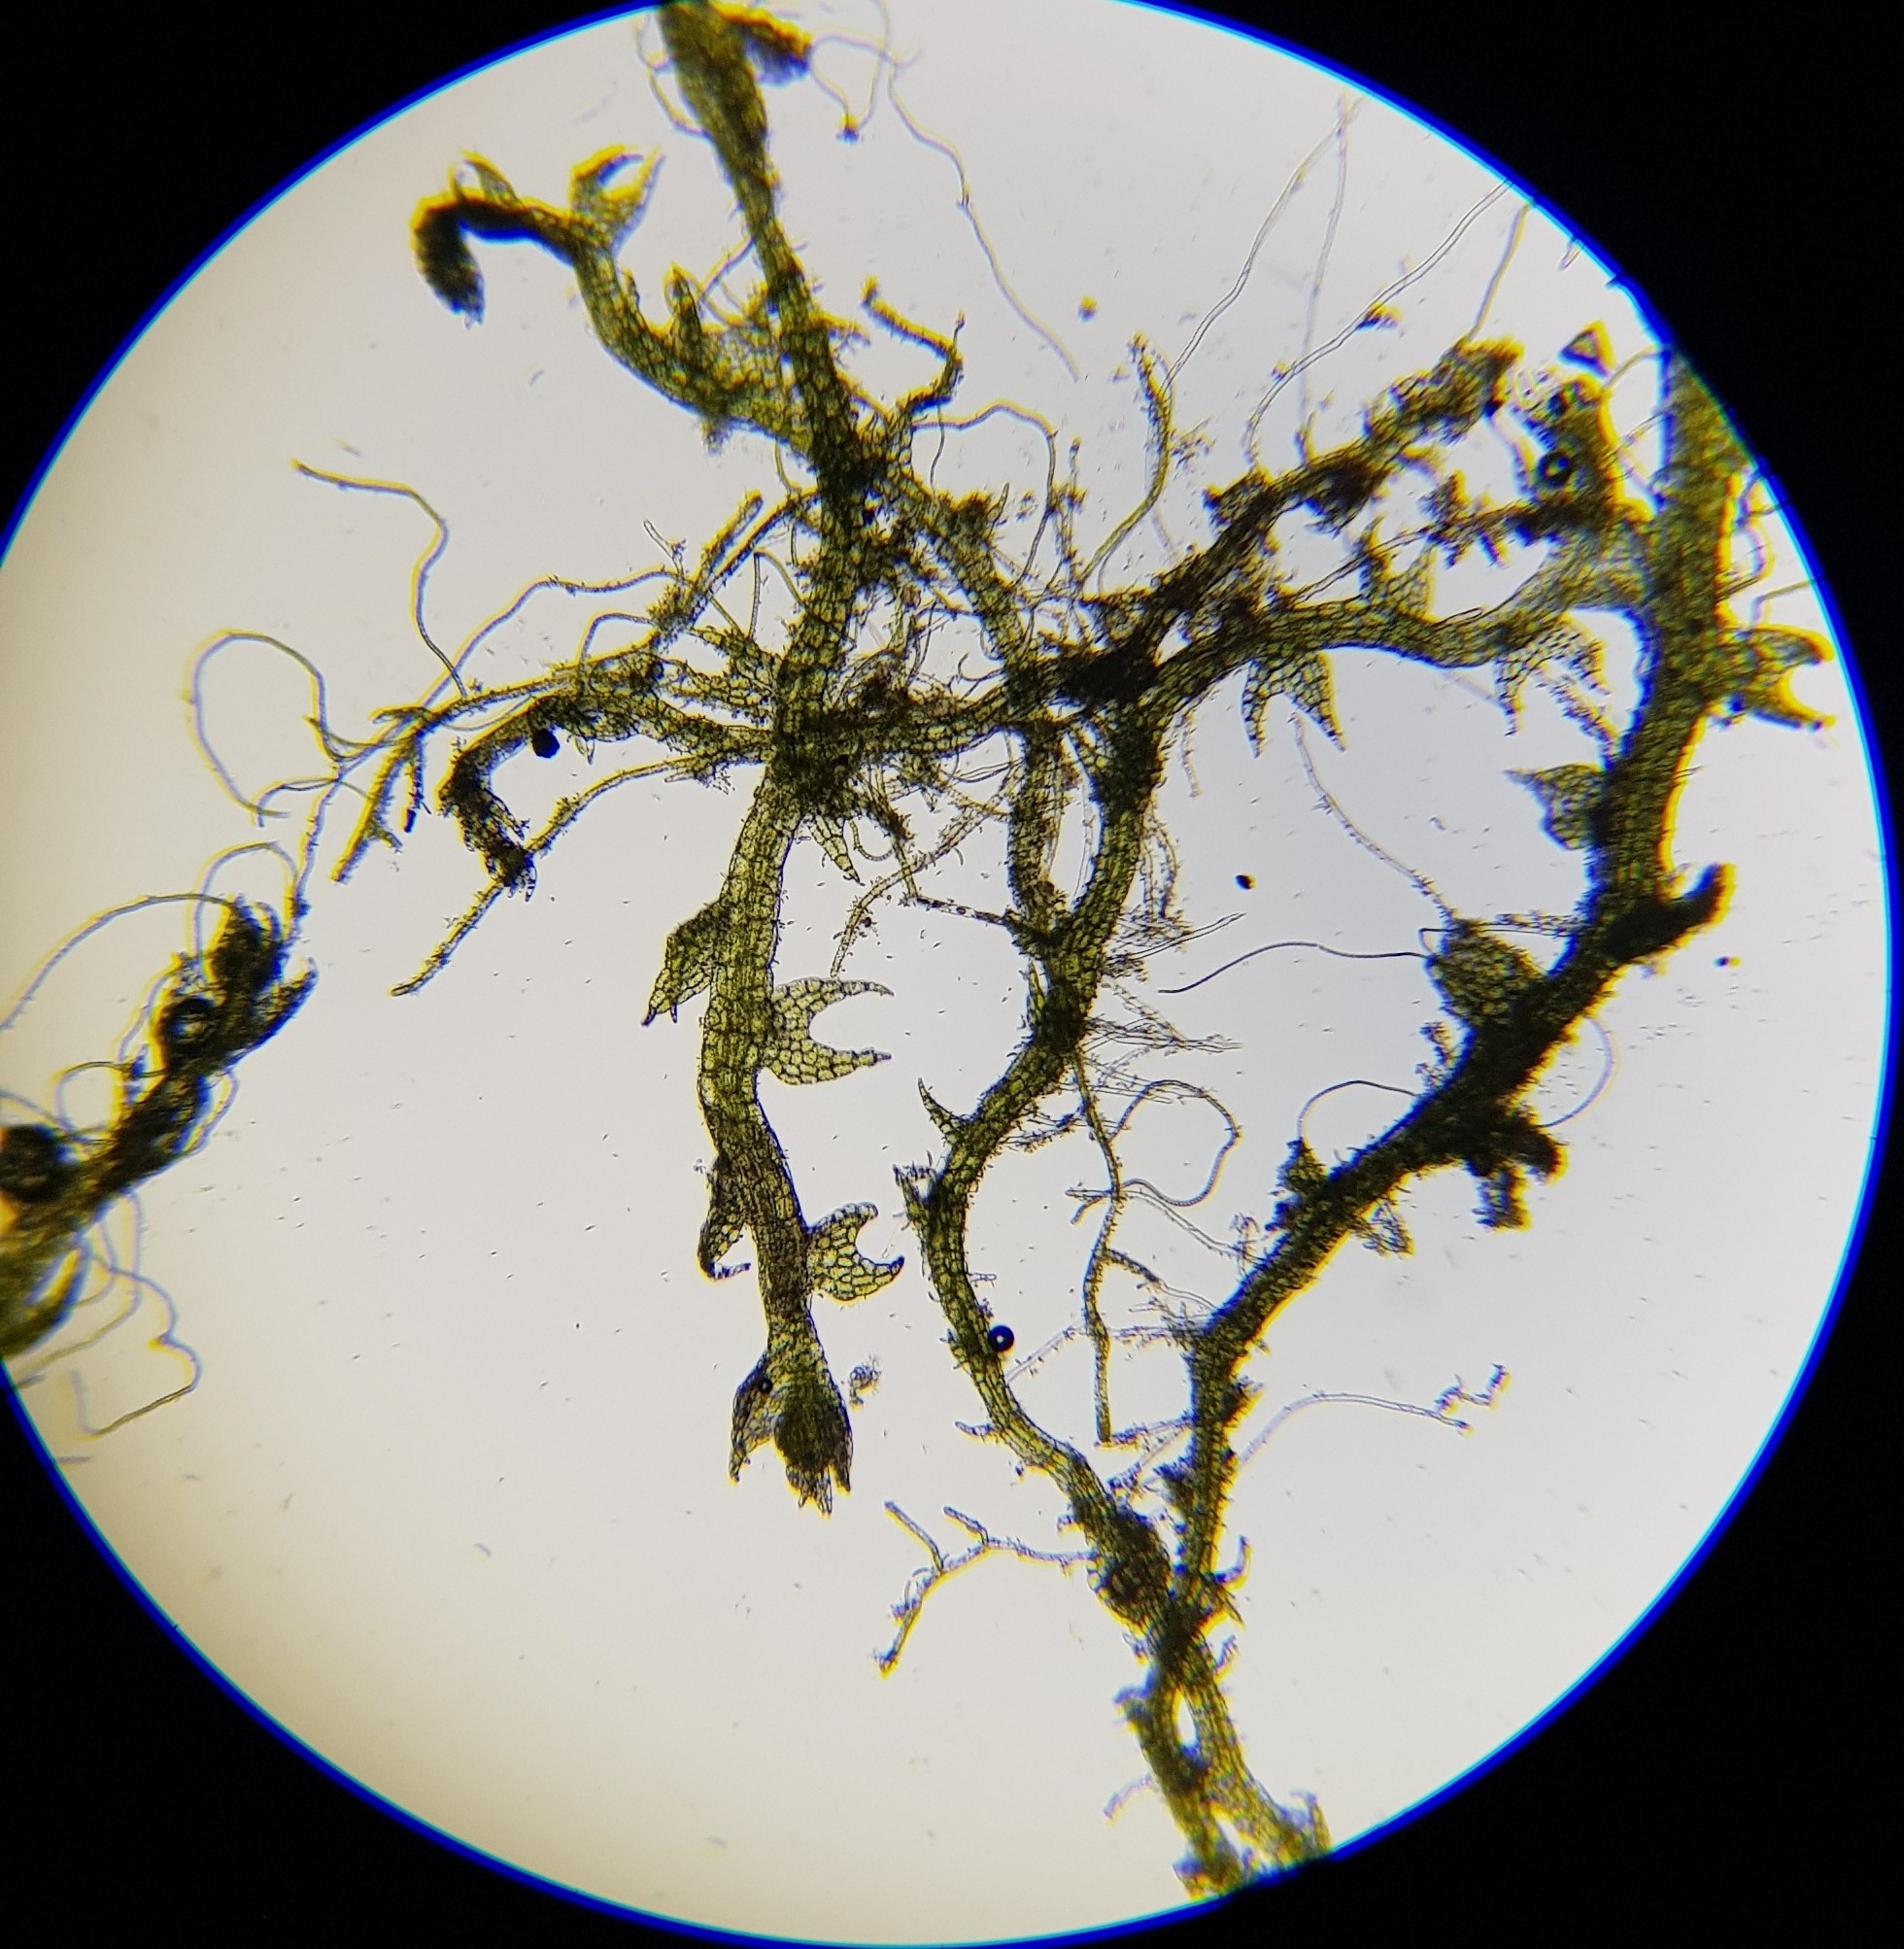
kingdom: Plantae
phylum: Marchantiophyta
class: Jungermanniopsida
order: Jungermanniales
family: Cephaloziaceae
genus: Cephalozia
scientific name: Cephalozia bicuspidata
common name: Two-horned pincerwort
